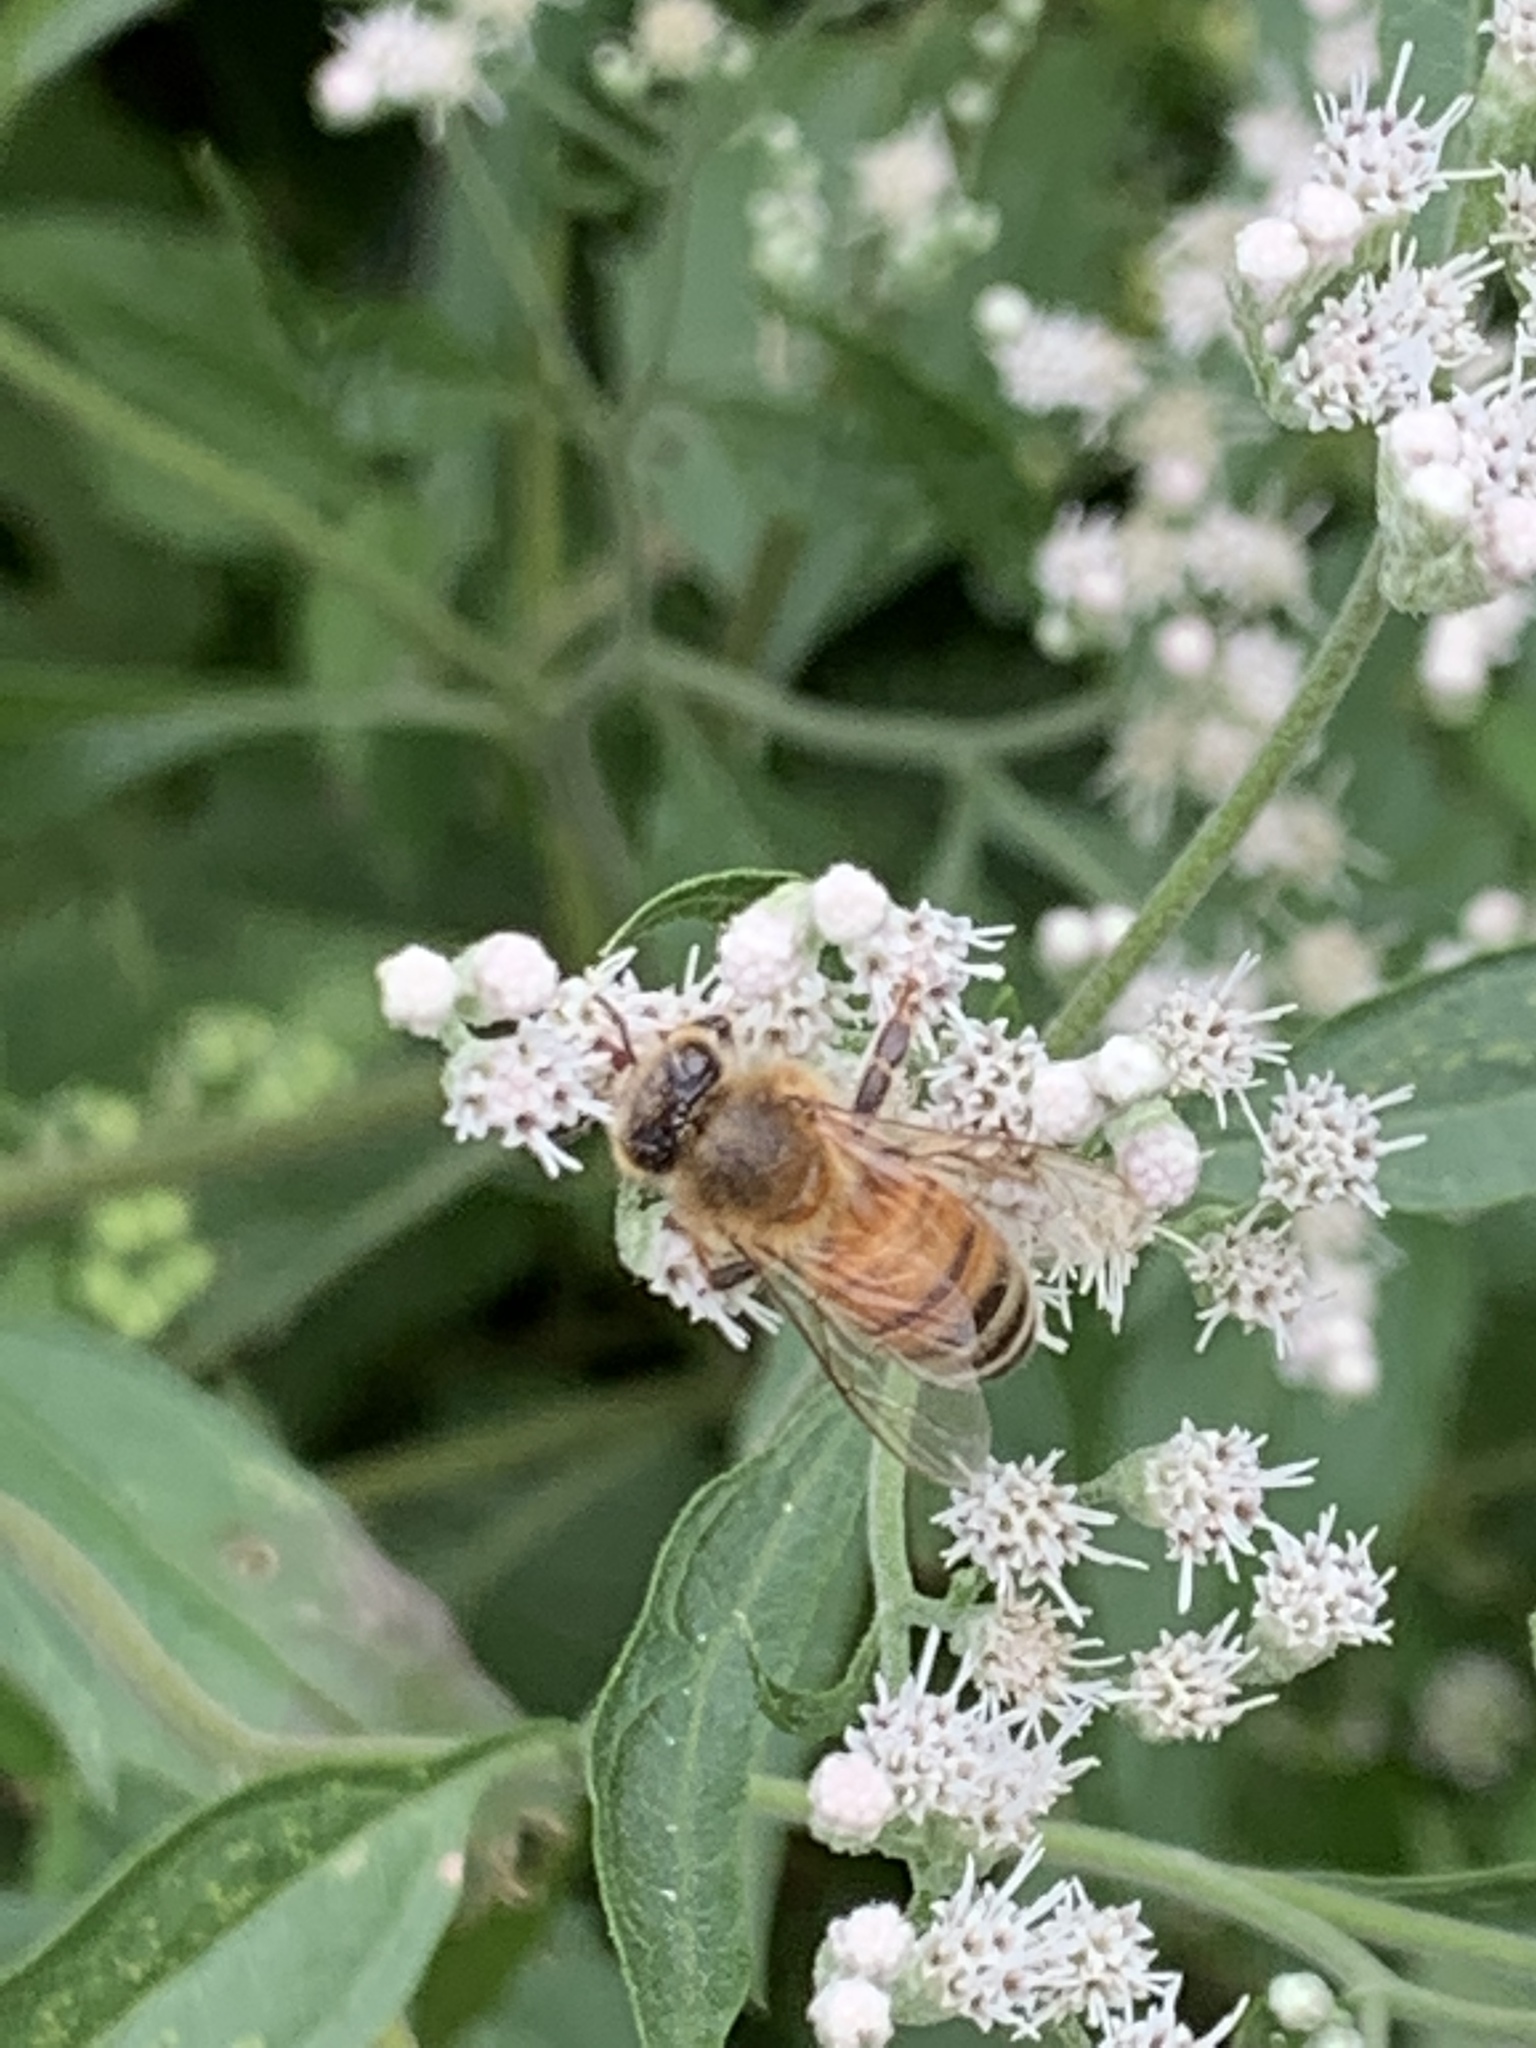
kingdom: Animalia
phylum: Arthropoda
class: Insecta
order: Hymenoptera
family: Apidae
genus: Apis
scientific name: Apis mellifera
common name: Honey bee
